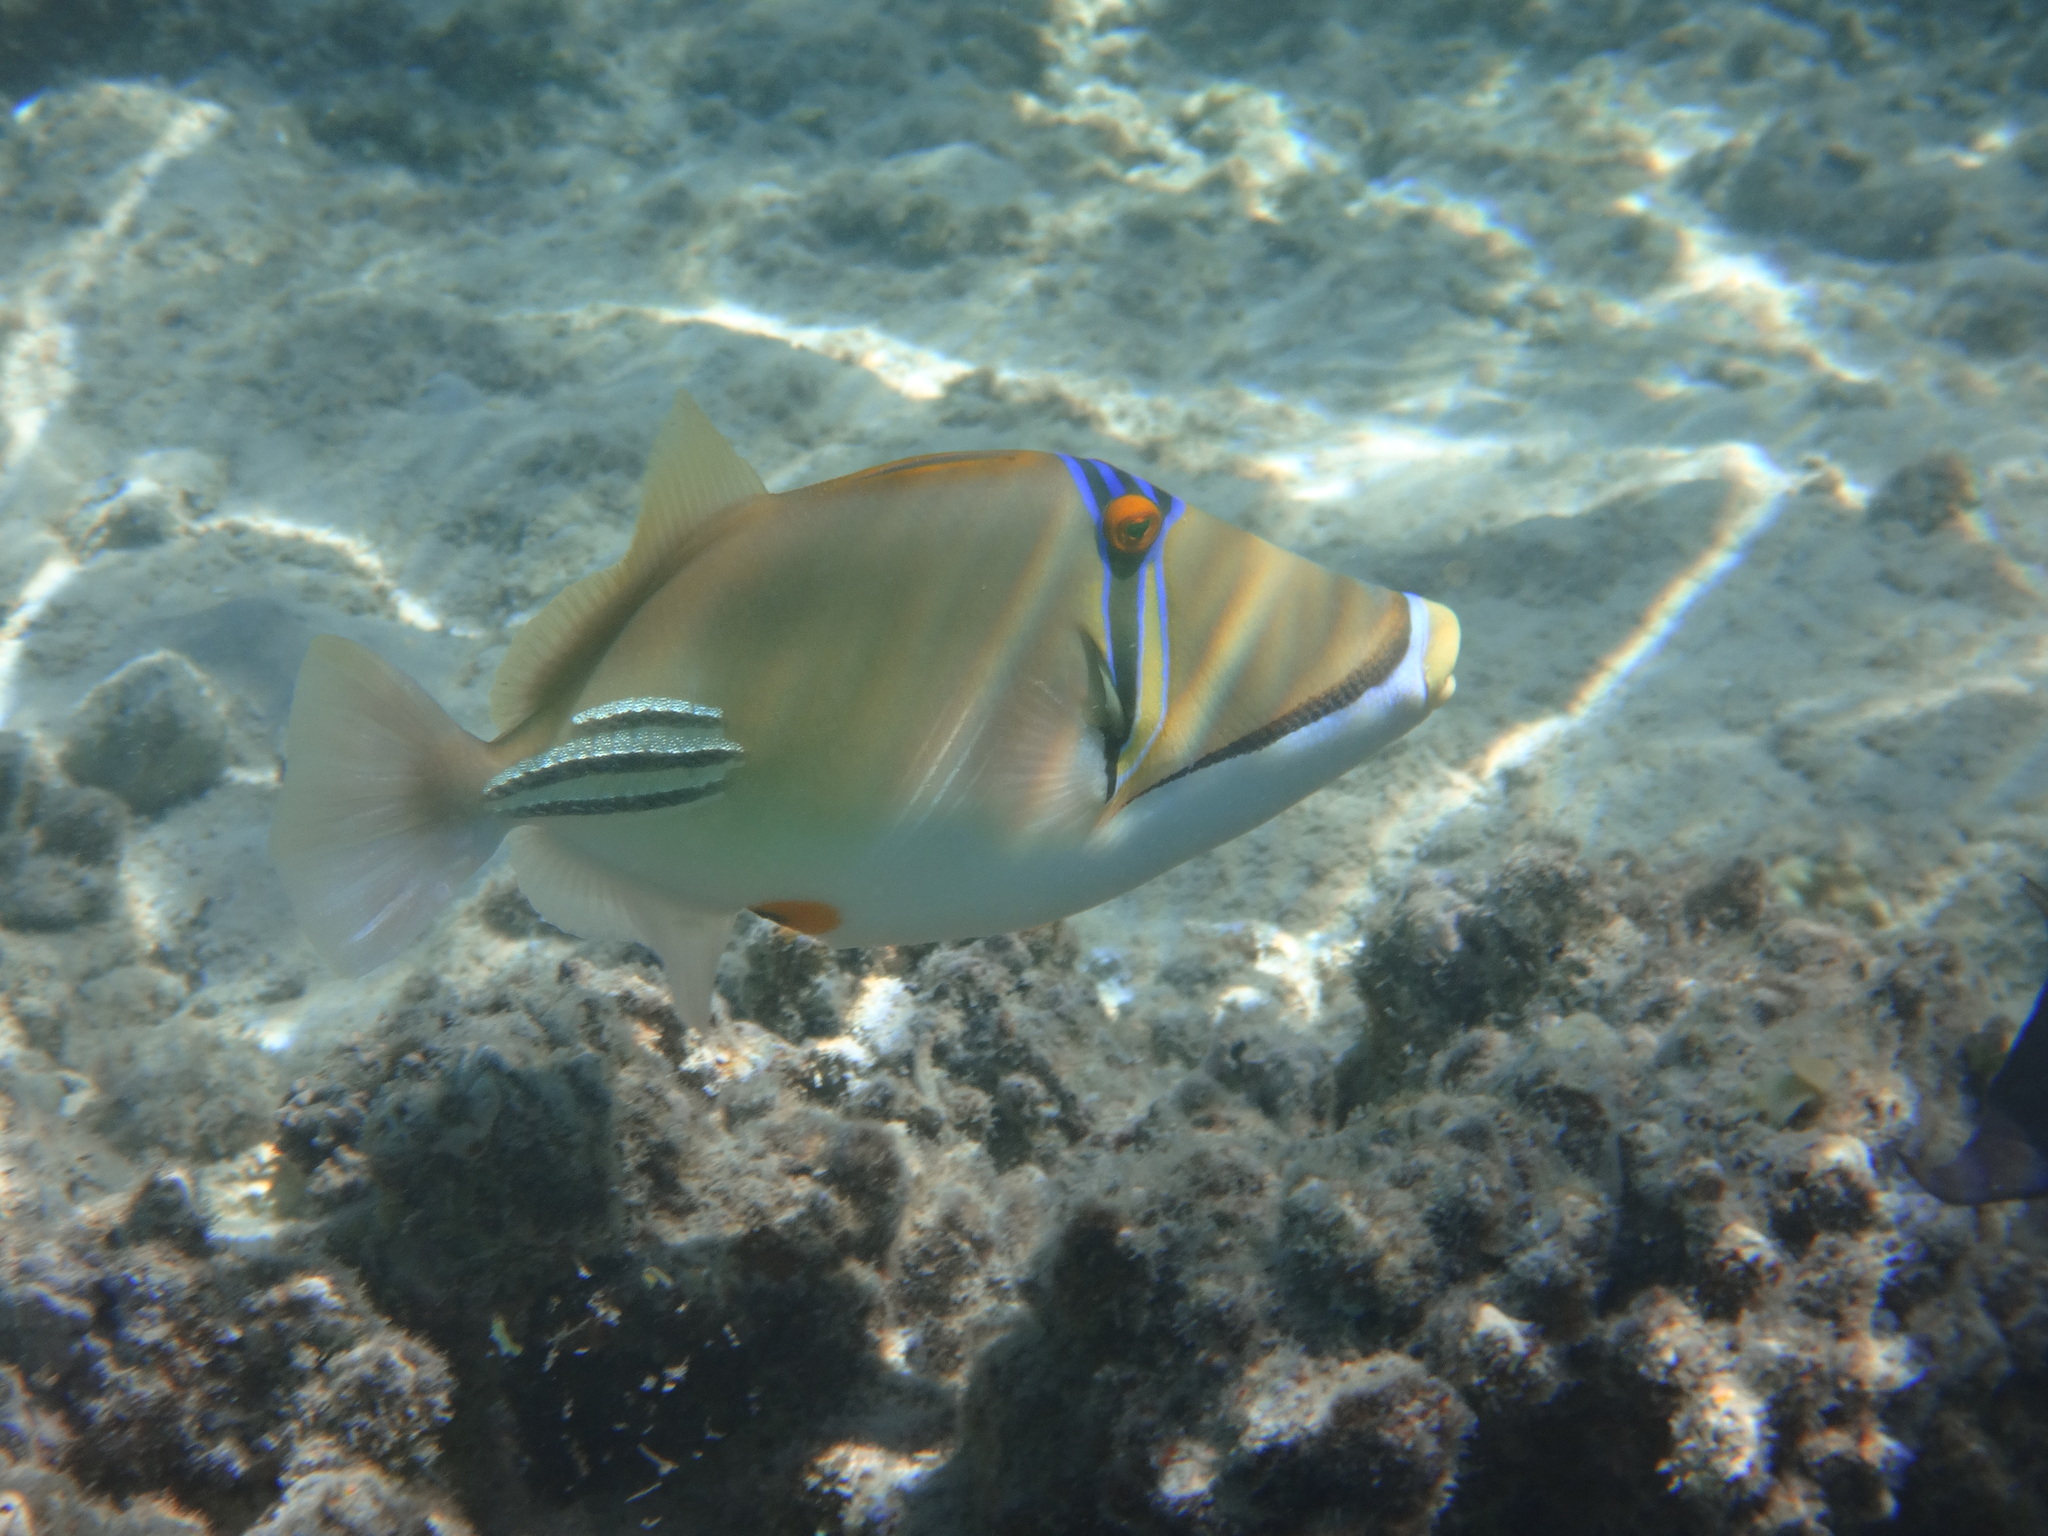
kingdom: Animalia
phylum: Chordata
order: Tetraodontiformes
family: Balistidae
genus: Rhinecanthus
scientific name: Rhinecanthus assasi
